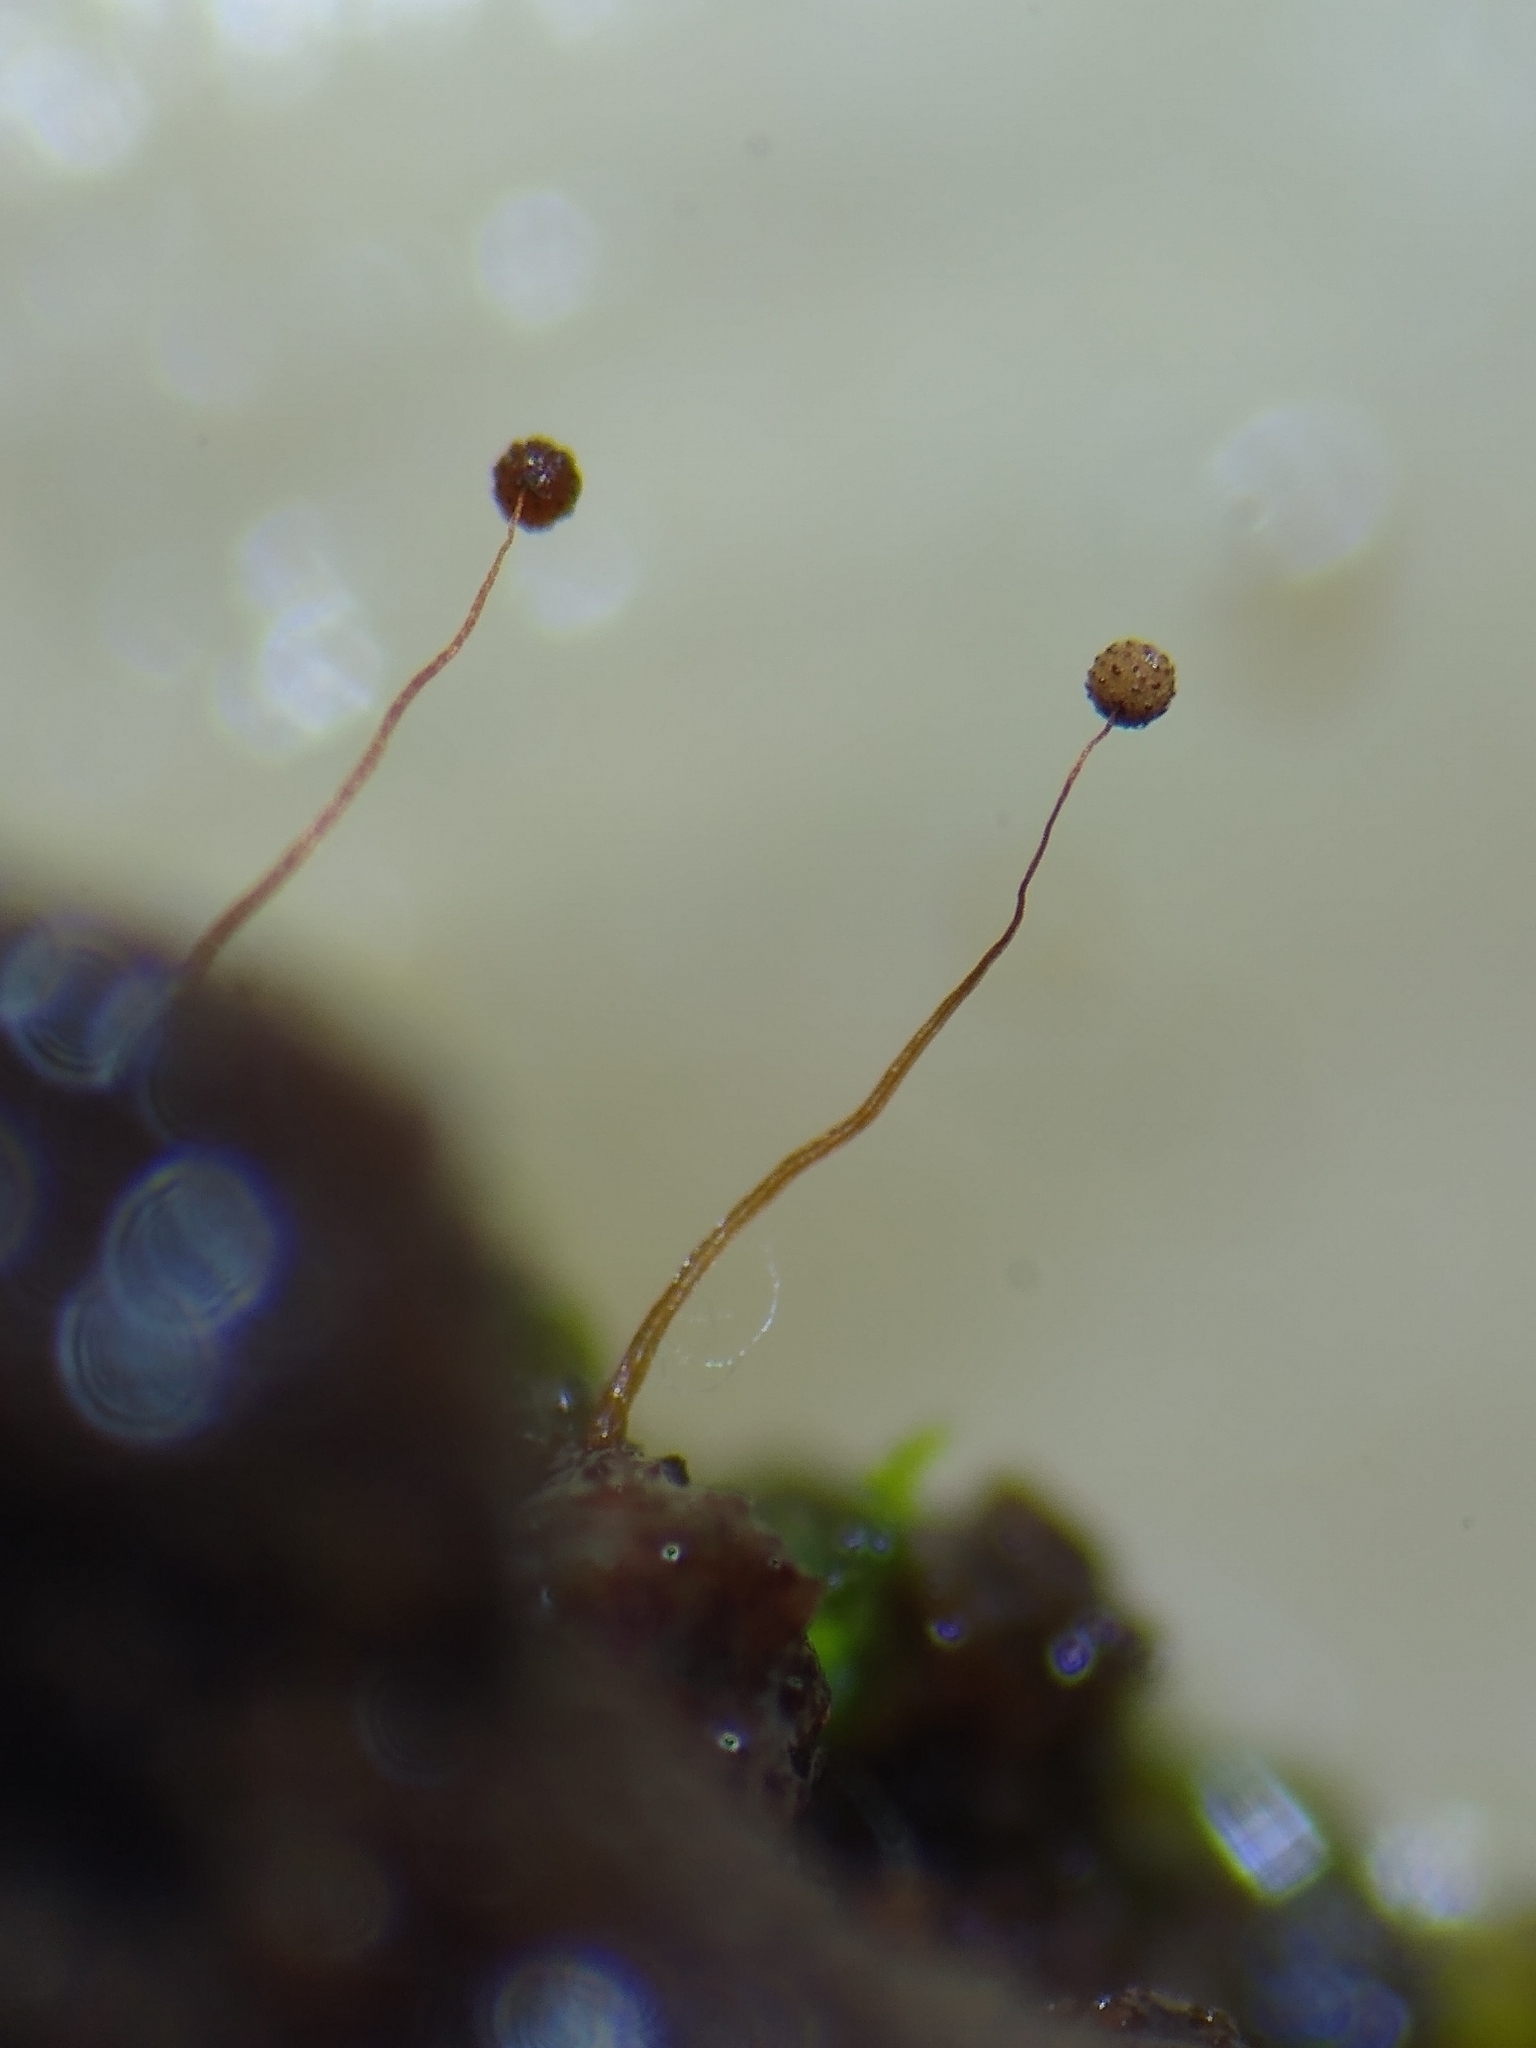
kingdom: Protozoa
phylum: Mycetozoa
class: Myxomycetes
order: Cribrariales
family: Cribrariaceae
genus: Cribraria
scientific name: Cribraria microcarpa
